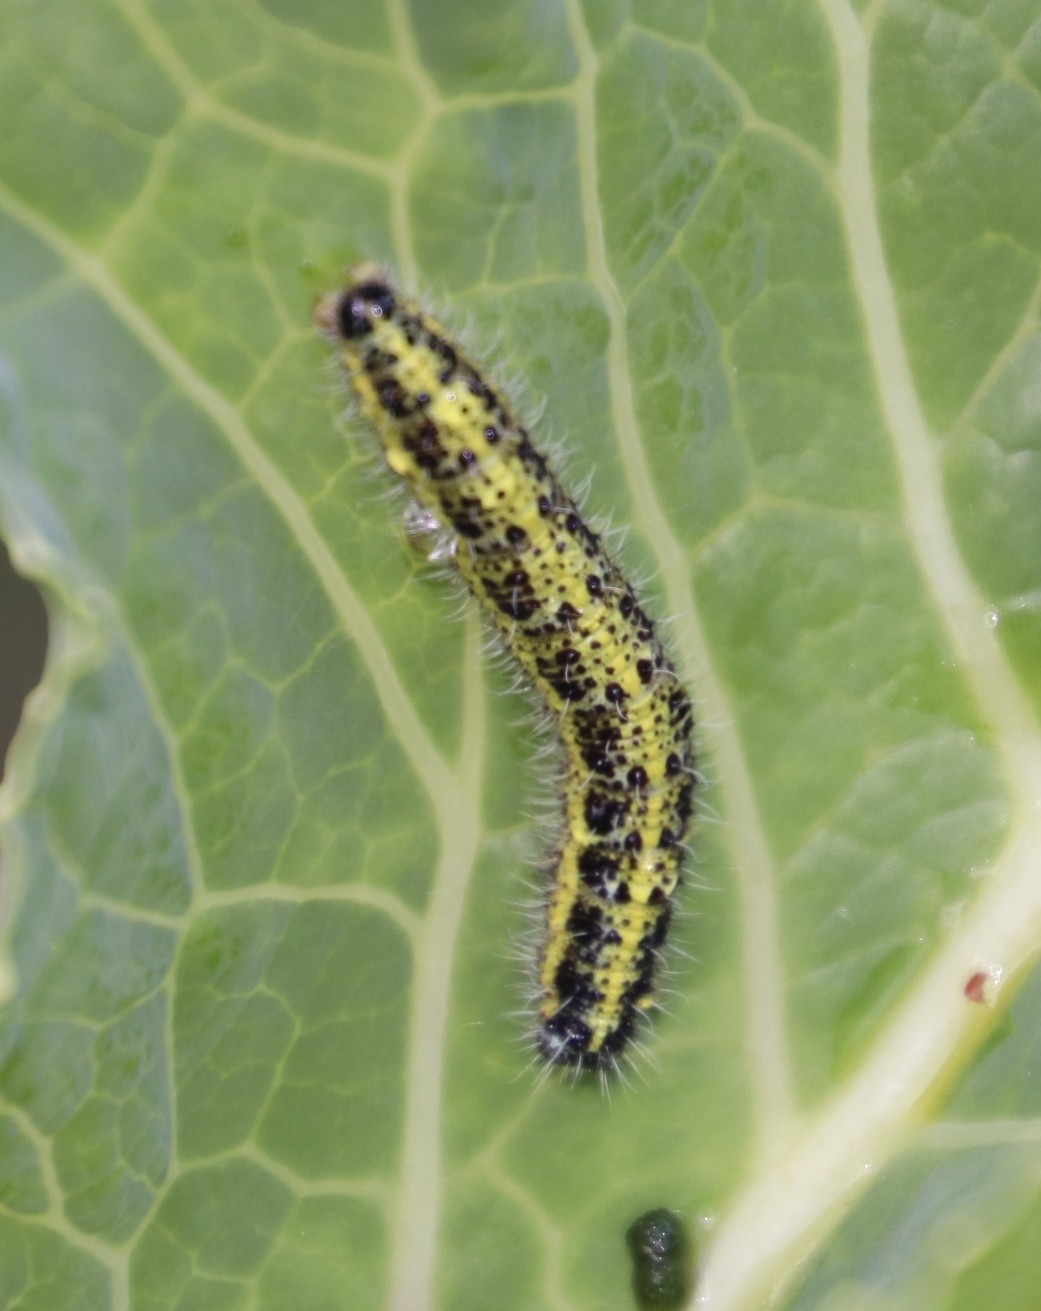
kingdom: Animalia
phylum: Arthropoda
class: Insecta
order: Lepidoptera
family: Pieridae
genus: Pieris
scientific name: Pieris brassicae
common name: Large white
